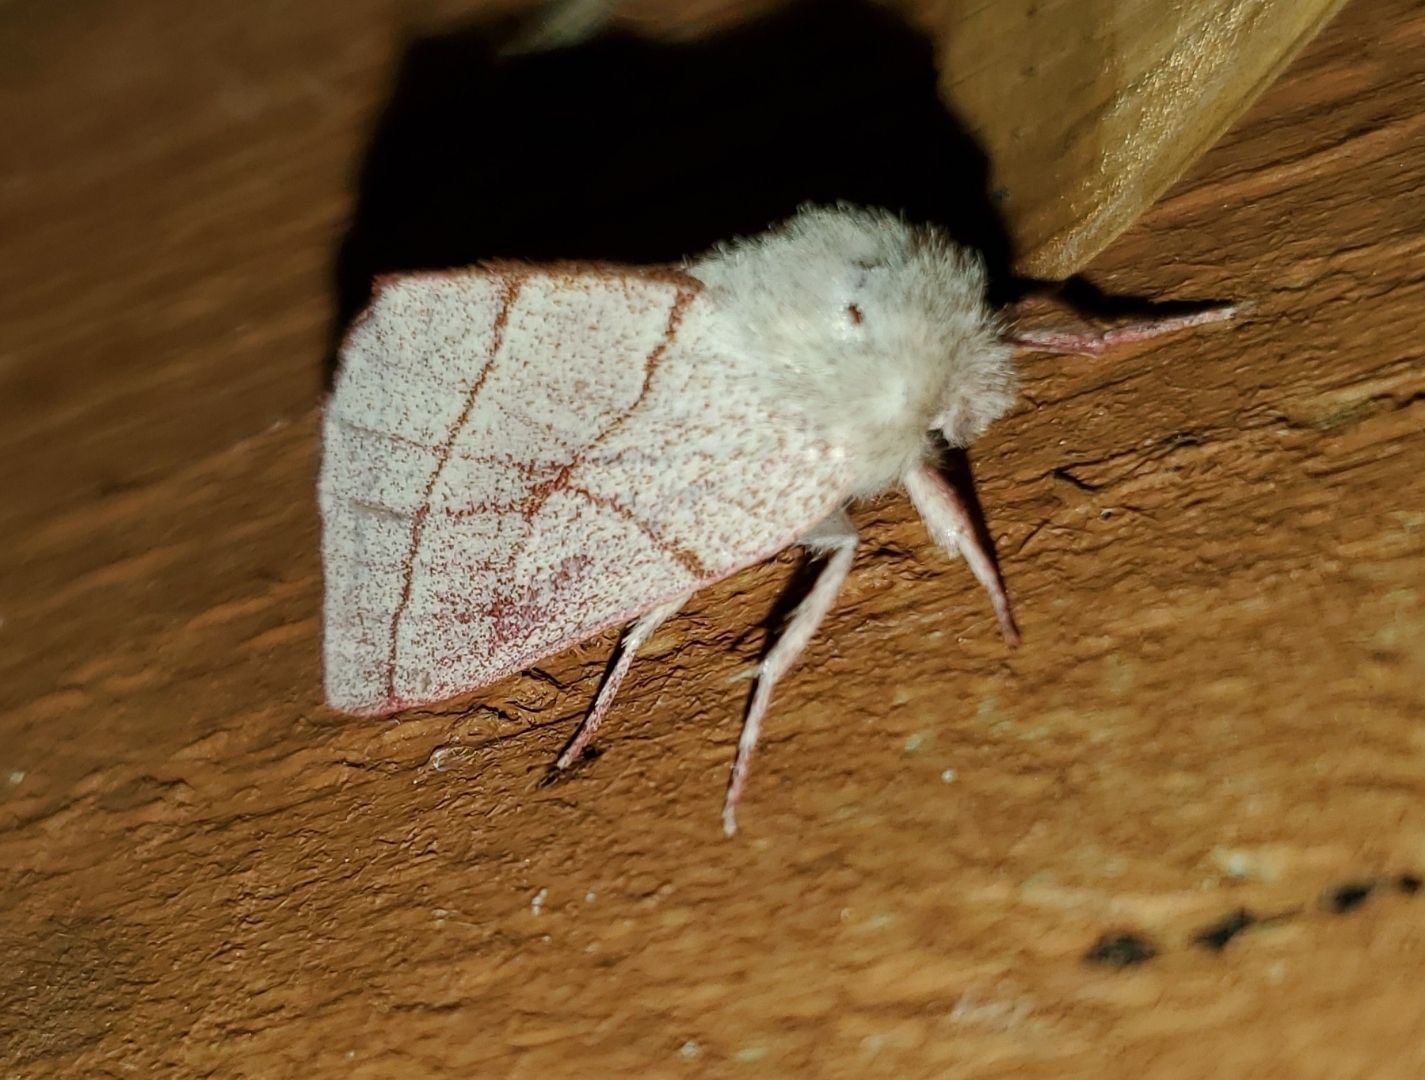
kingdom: Animalia
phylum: Arthropoda
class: Insecta
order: Lepidoptera
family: Notodontidae
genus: Hyparpax
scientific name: Hyparpax perophoroides
